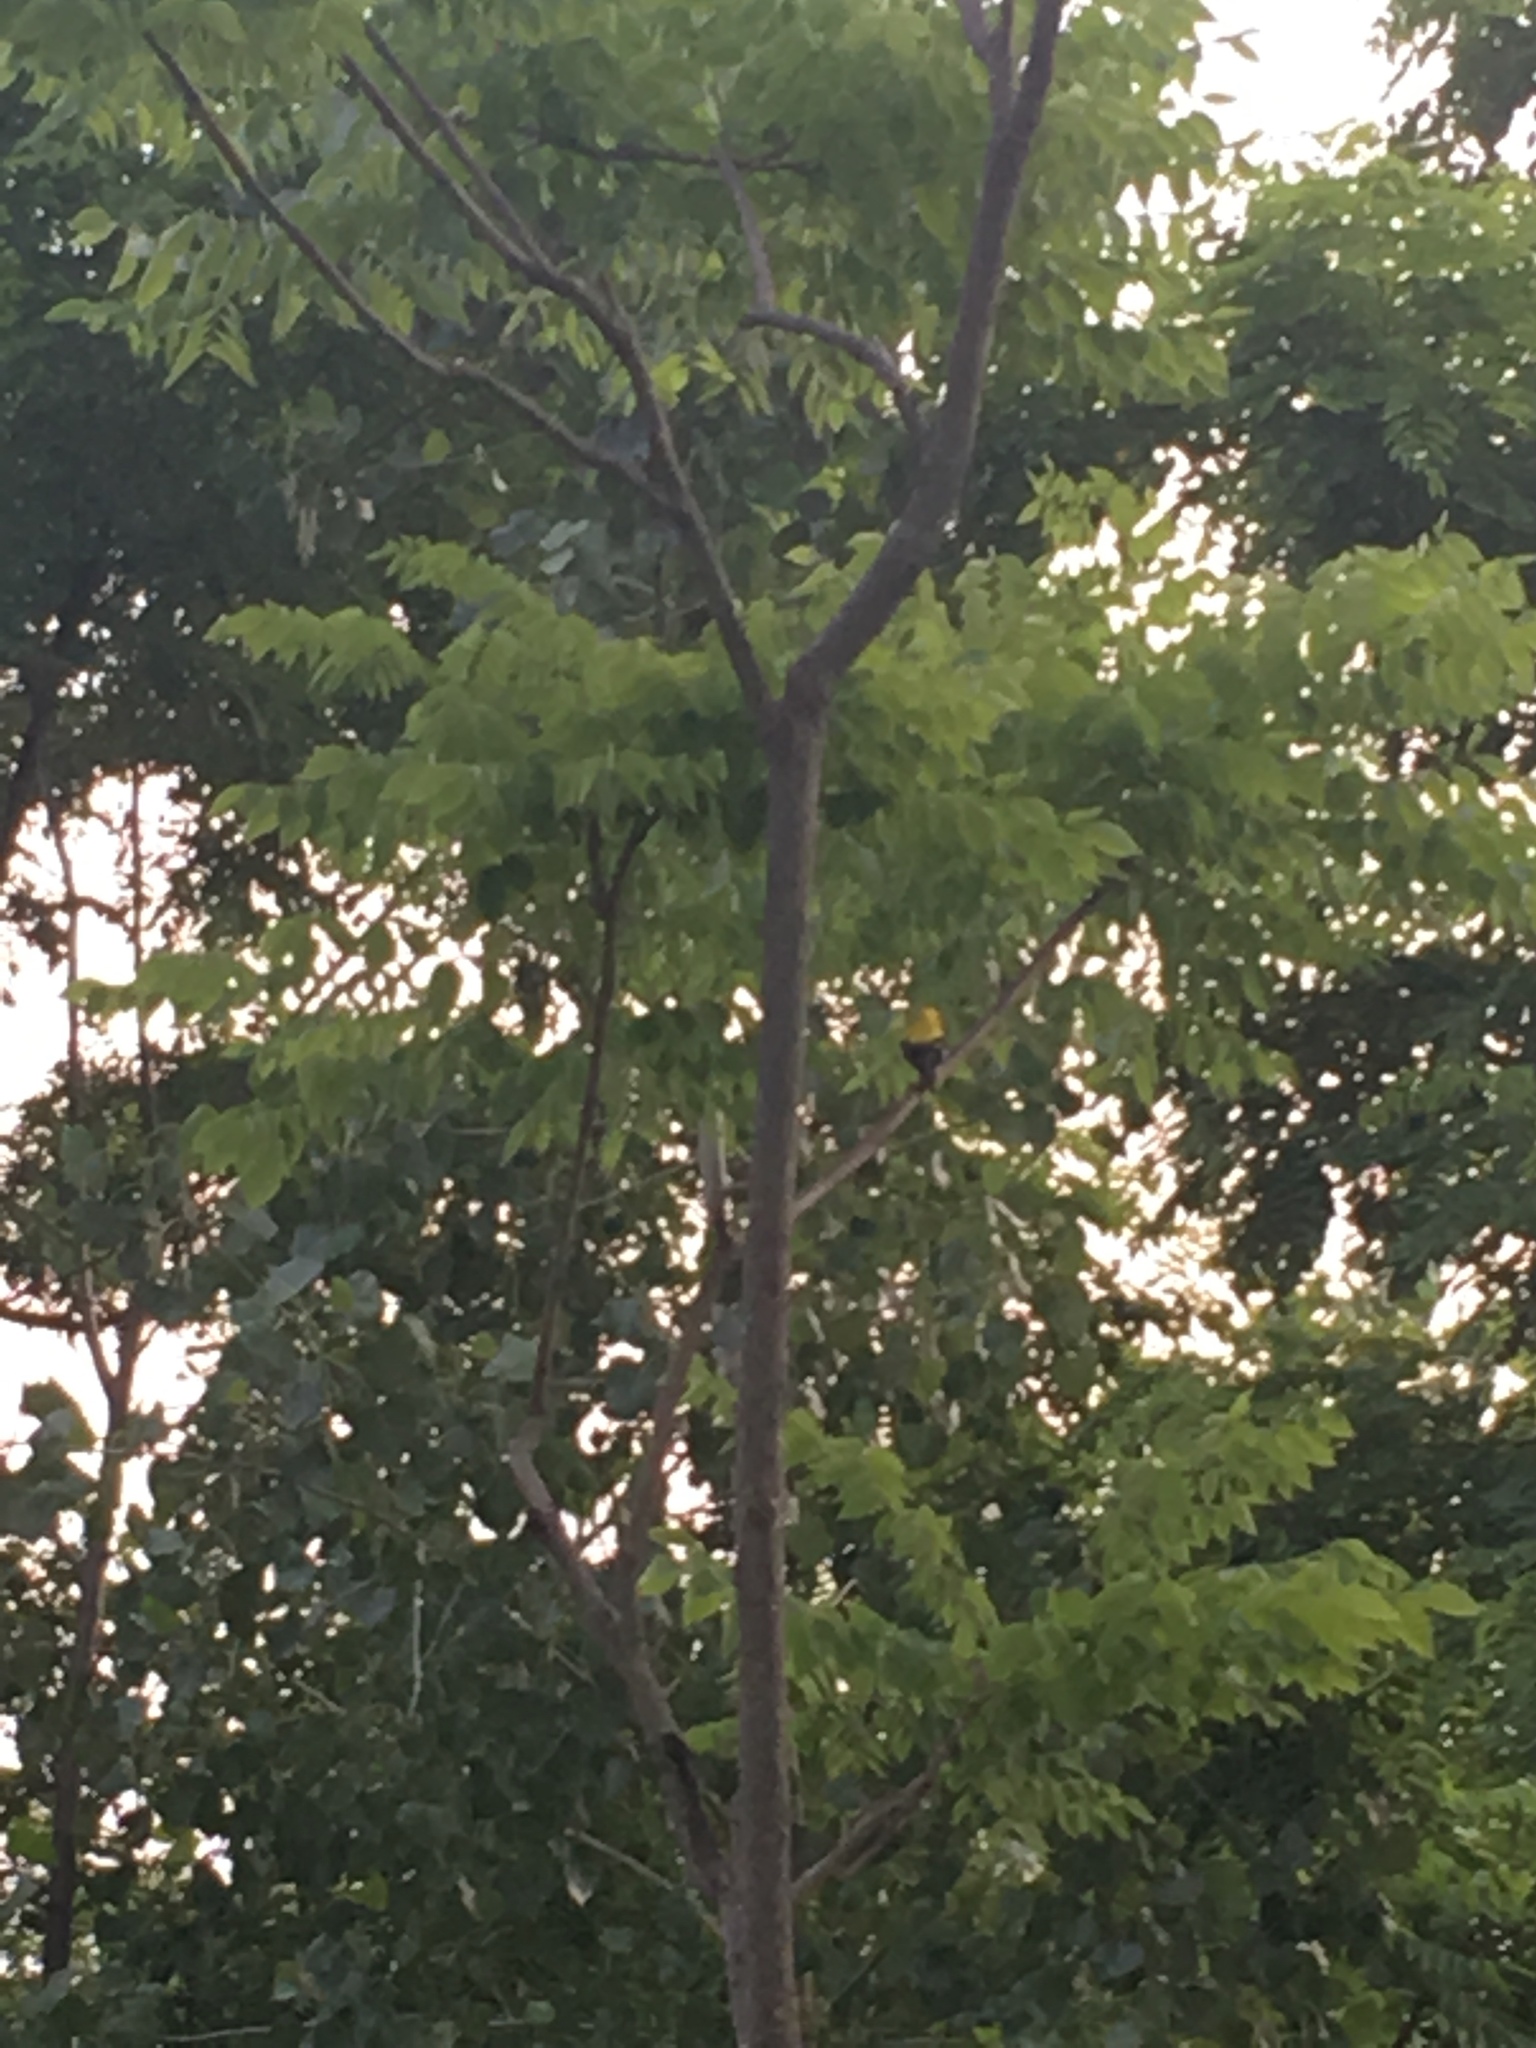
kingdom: Animalia
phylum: Chordata
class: Aves
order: Passeriformes
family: Fringillidae
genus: Spinus
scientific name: Spinus tristis
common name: American goldfinch
